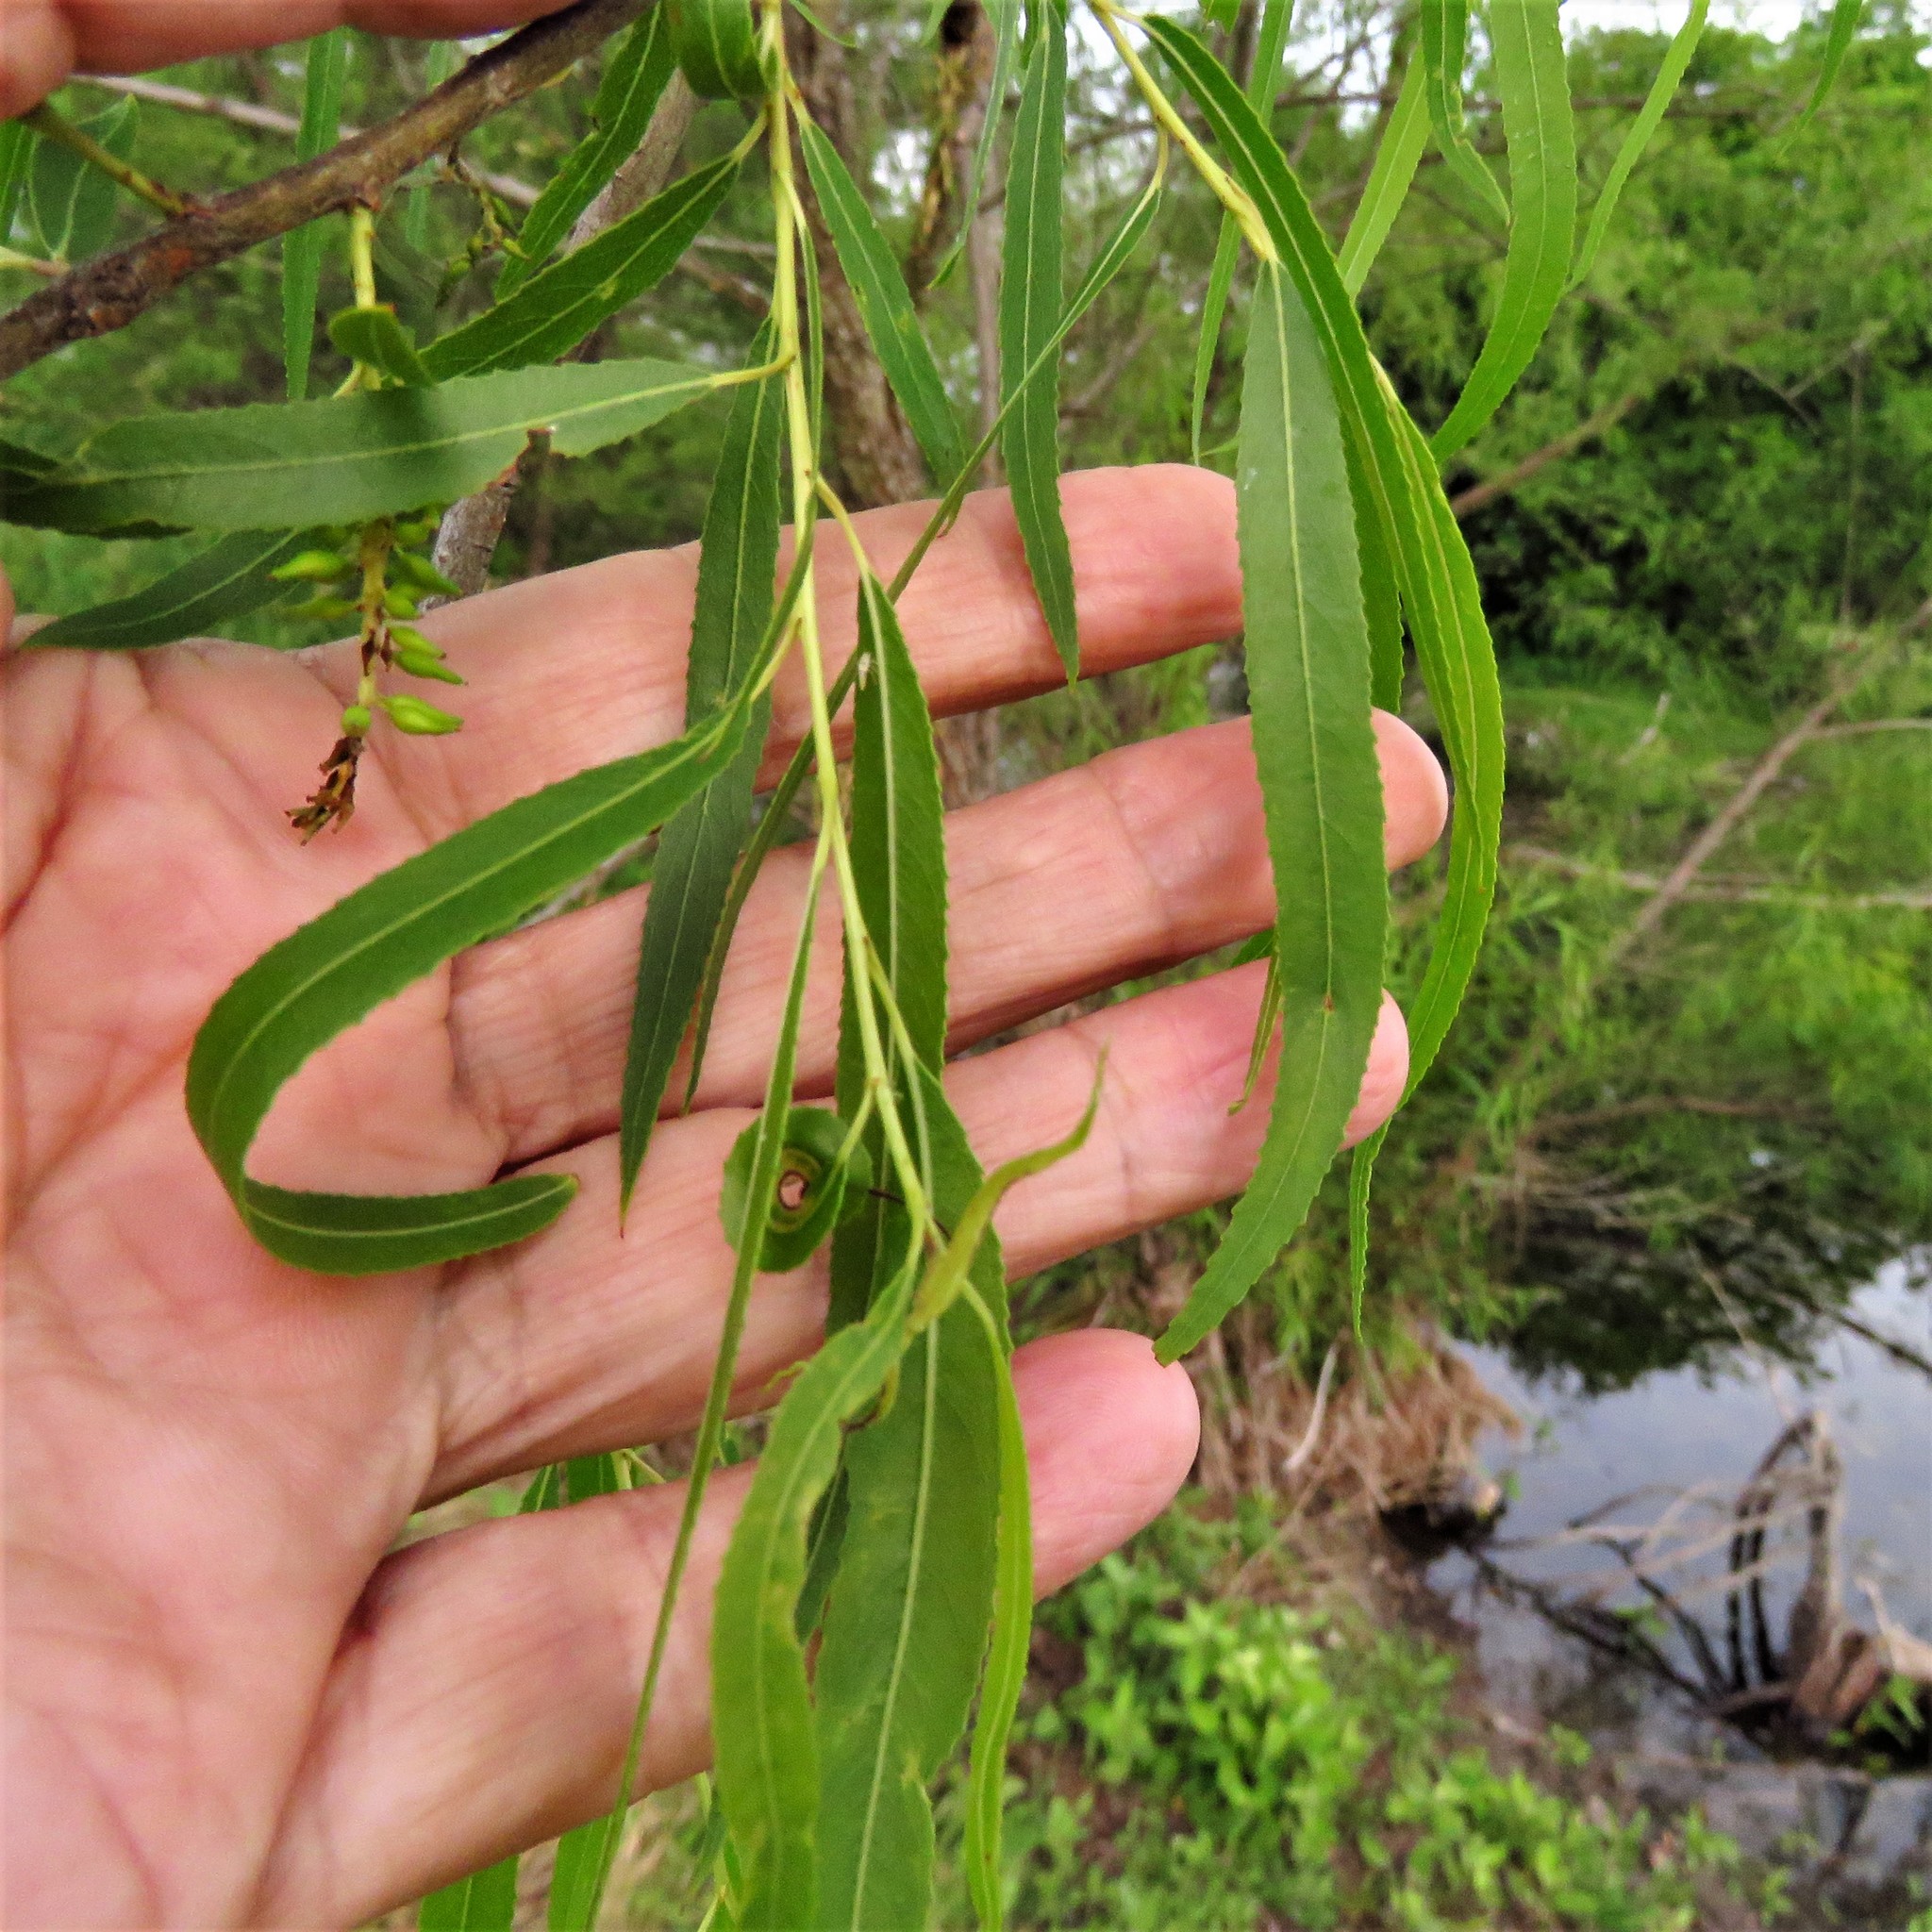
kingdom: Plantae
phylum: Tracheophyta
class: Magnoliopsida
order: Malpighiales
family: Salicaceae
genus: Salix
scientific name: Salix nigra
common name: Black willow
